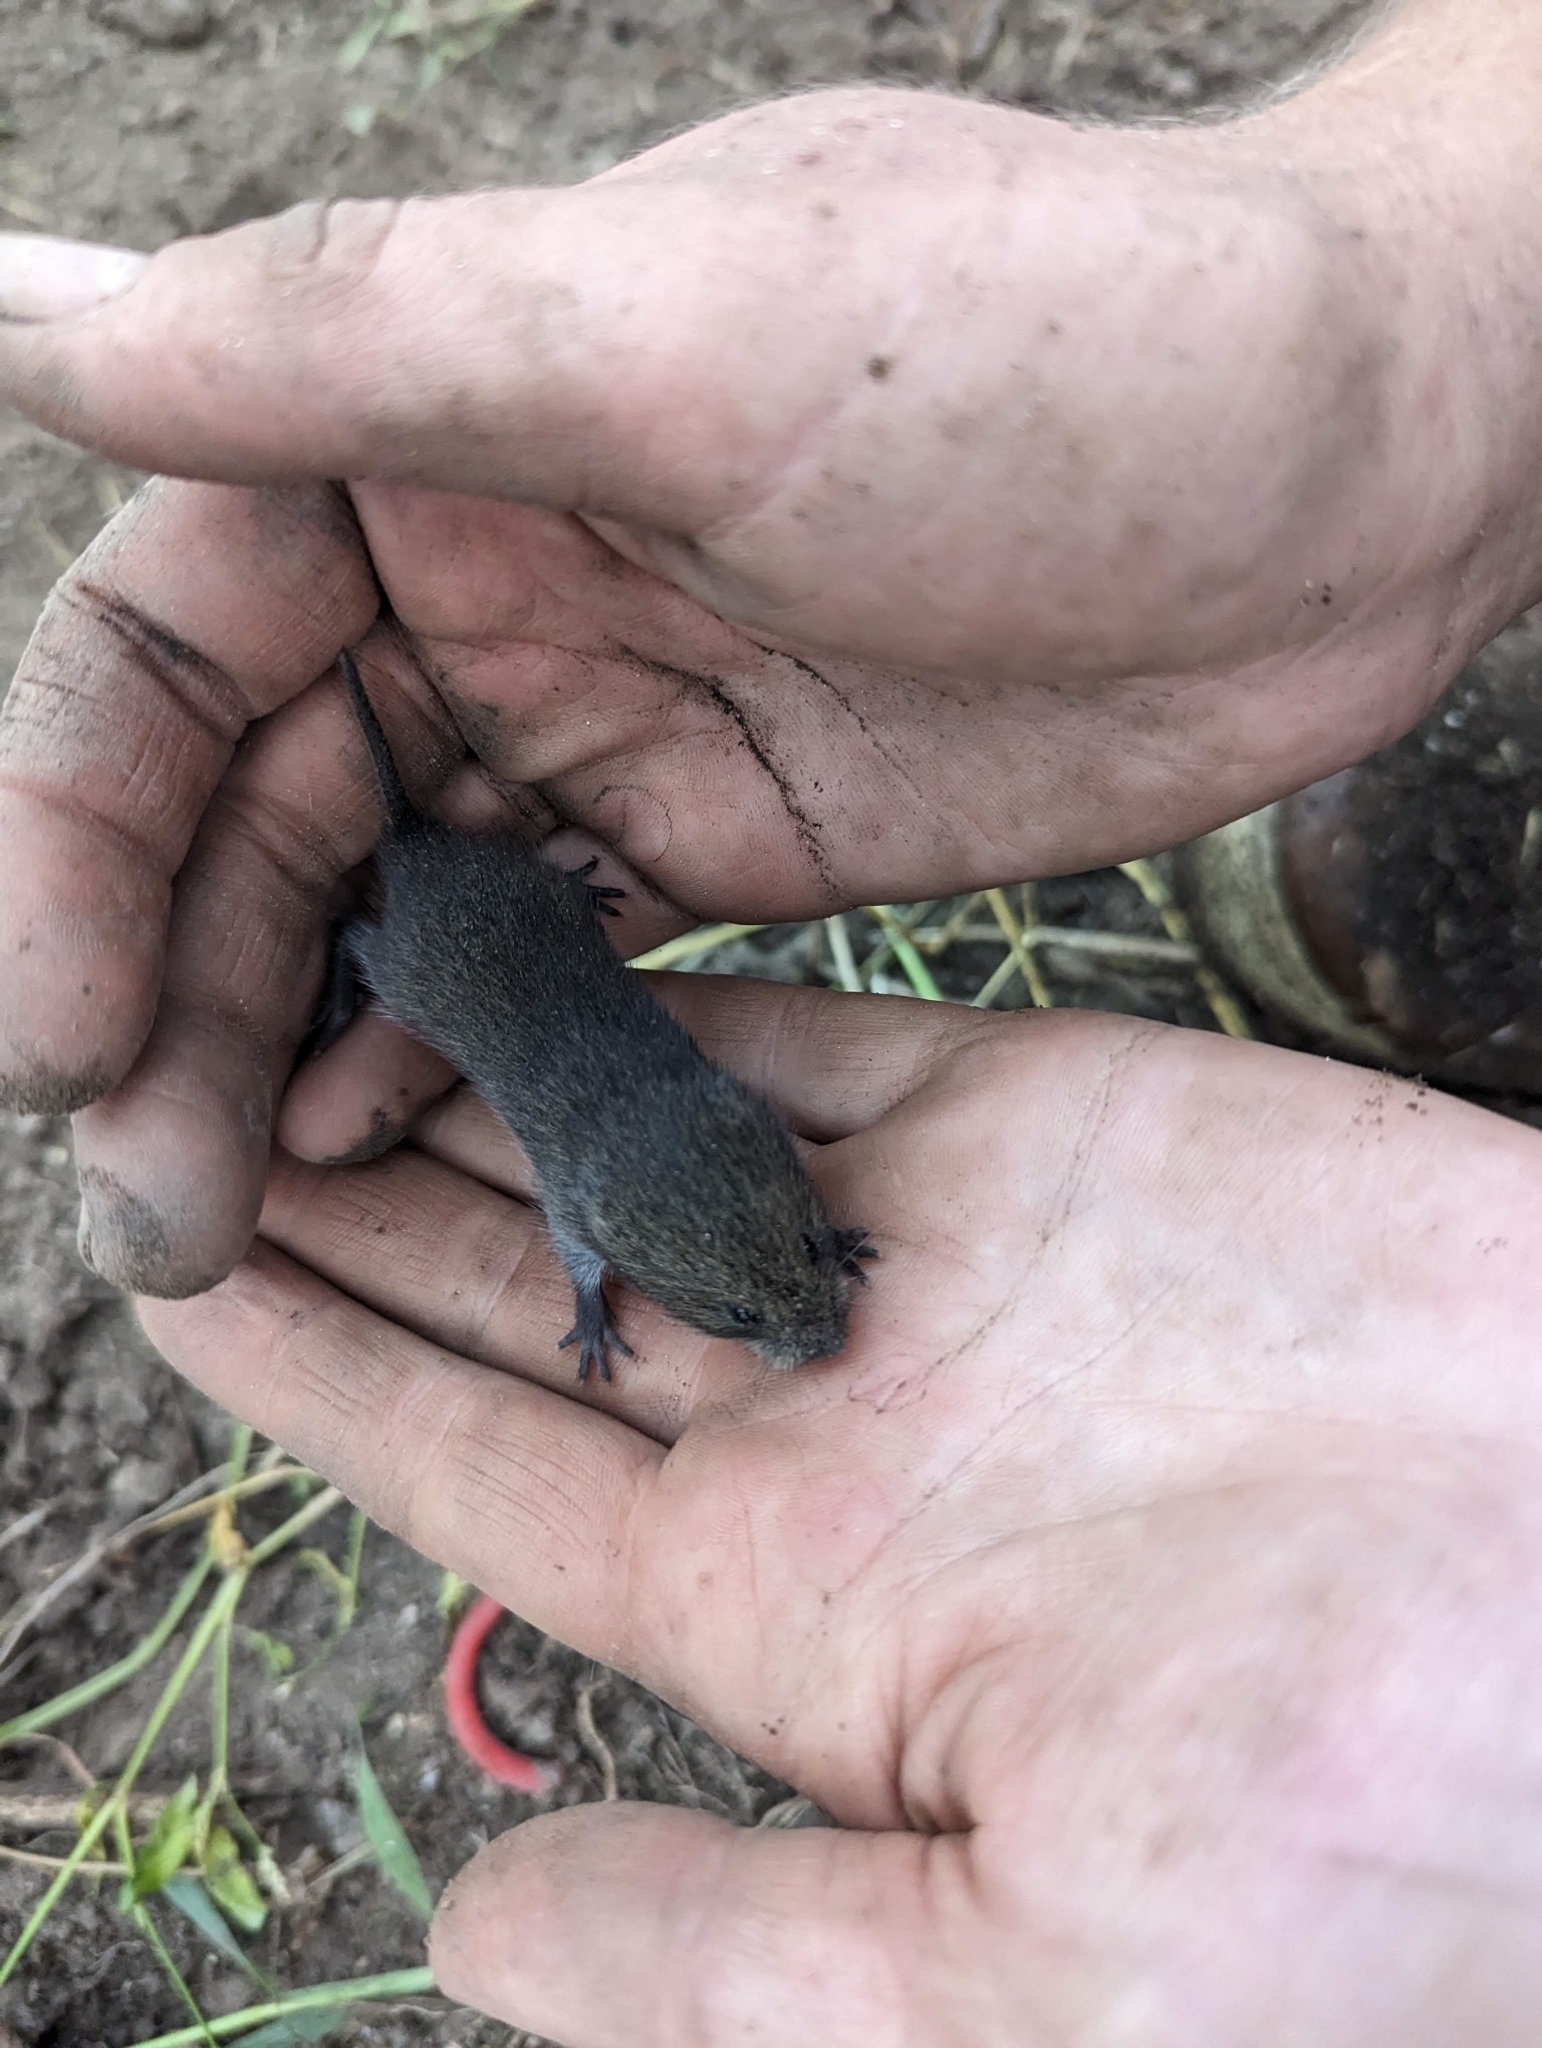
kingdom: Animalia
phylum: Chordata
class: Mammalia
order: Rodentia
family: Cricetidae
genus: Microtus
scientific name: Microtus pennsylvanicus
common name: Meadow vole
